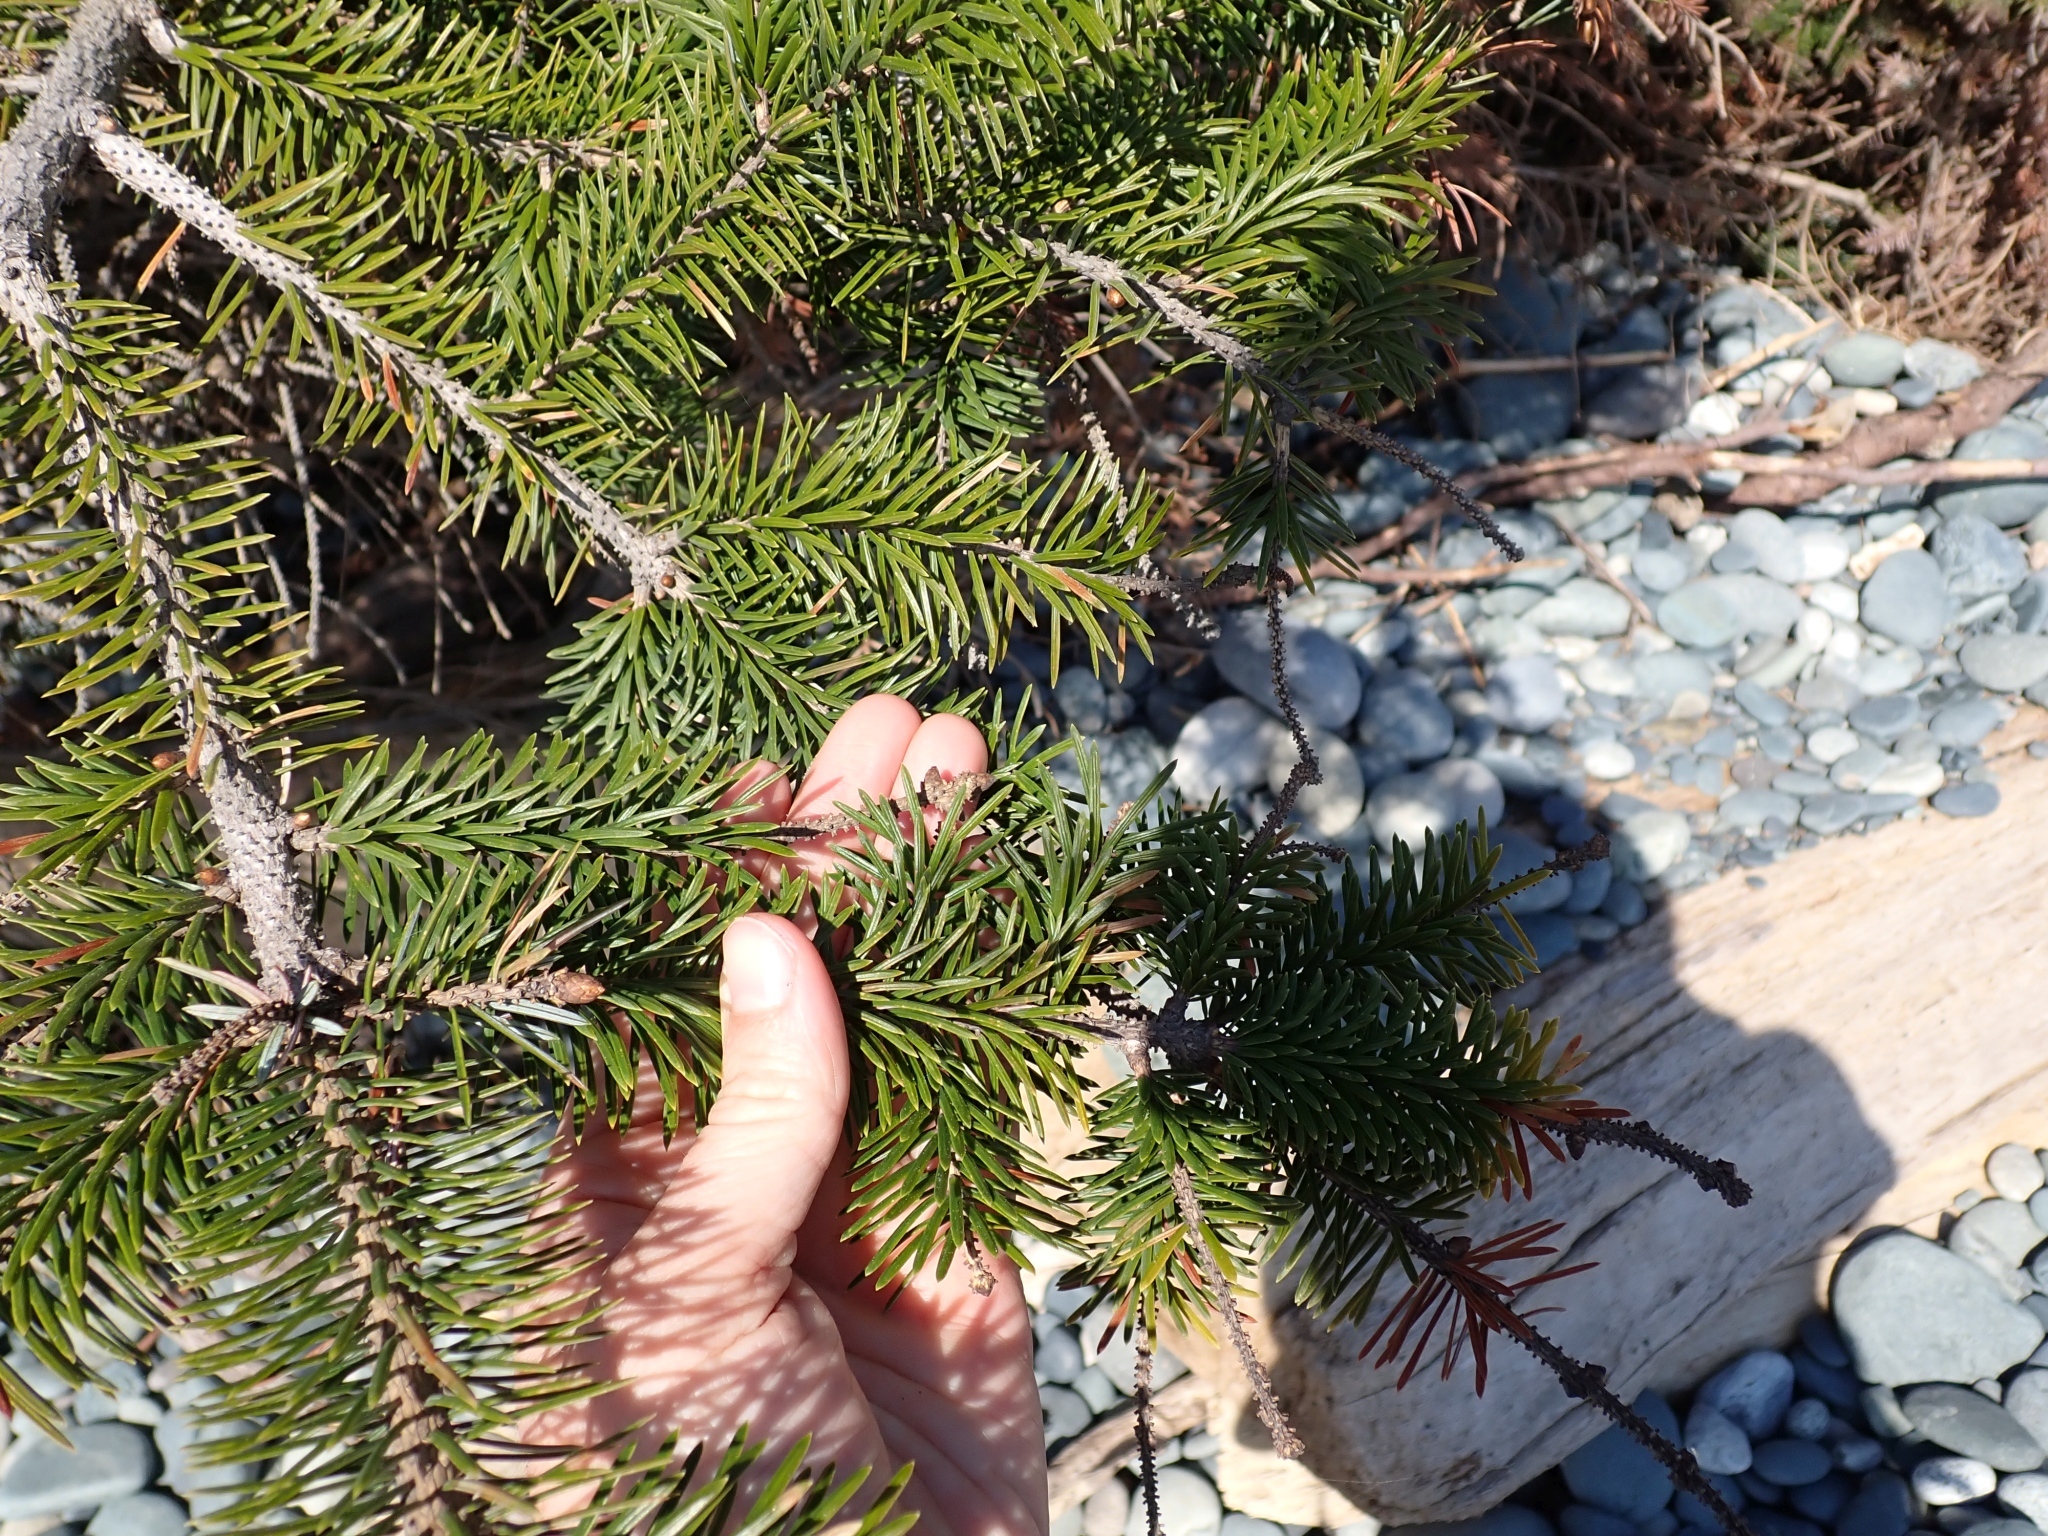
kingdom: Plantae
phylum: Tracheophyta
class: Pinopsida
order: Pinales
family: Pinaceae
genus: Picea
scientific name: Picea sitchensis
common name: Sitka spruce
